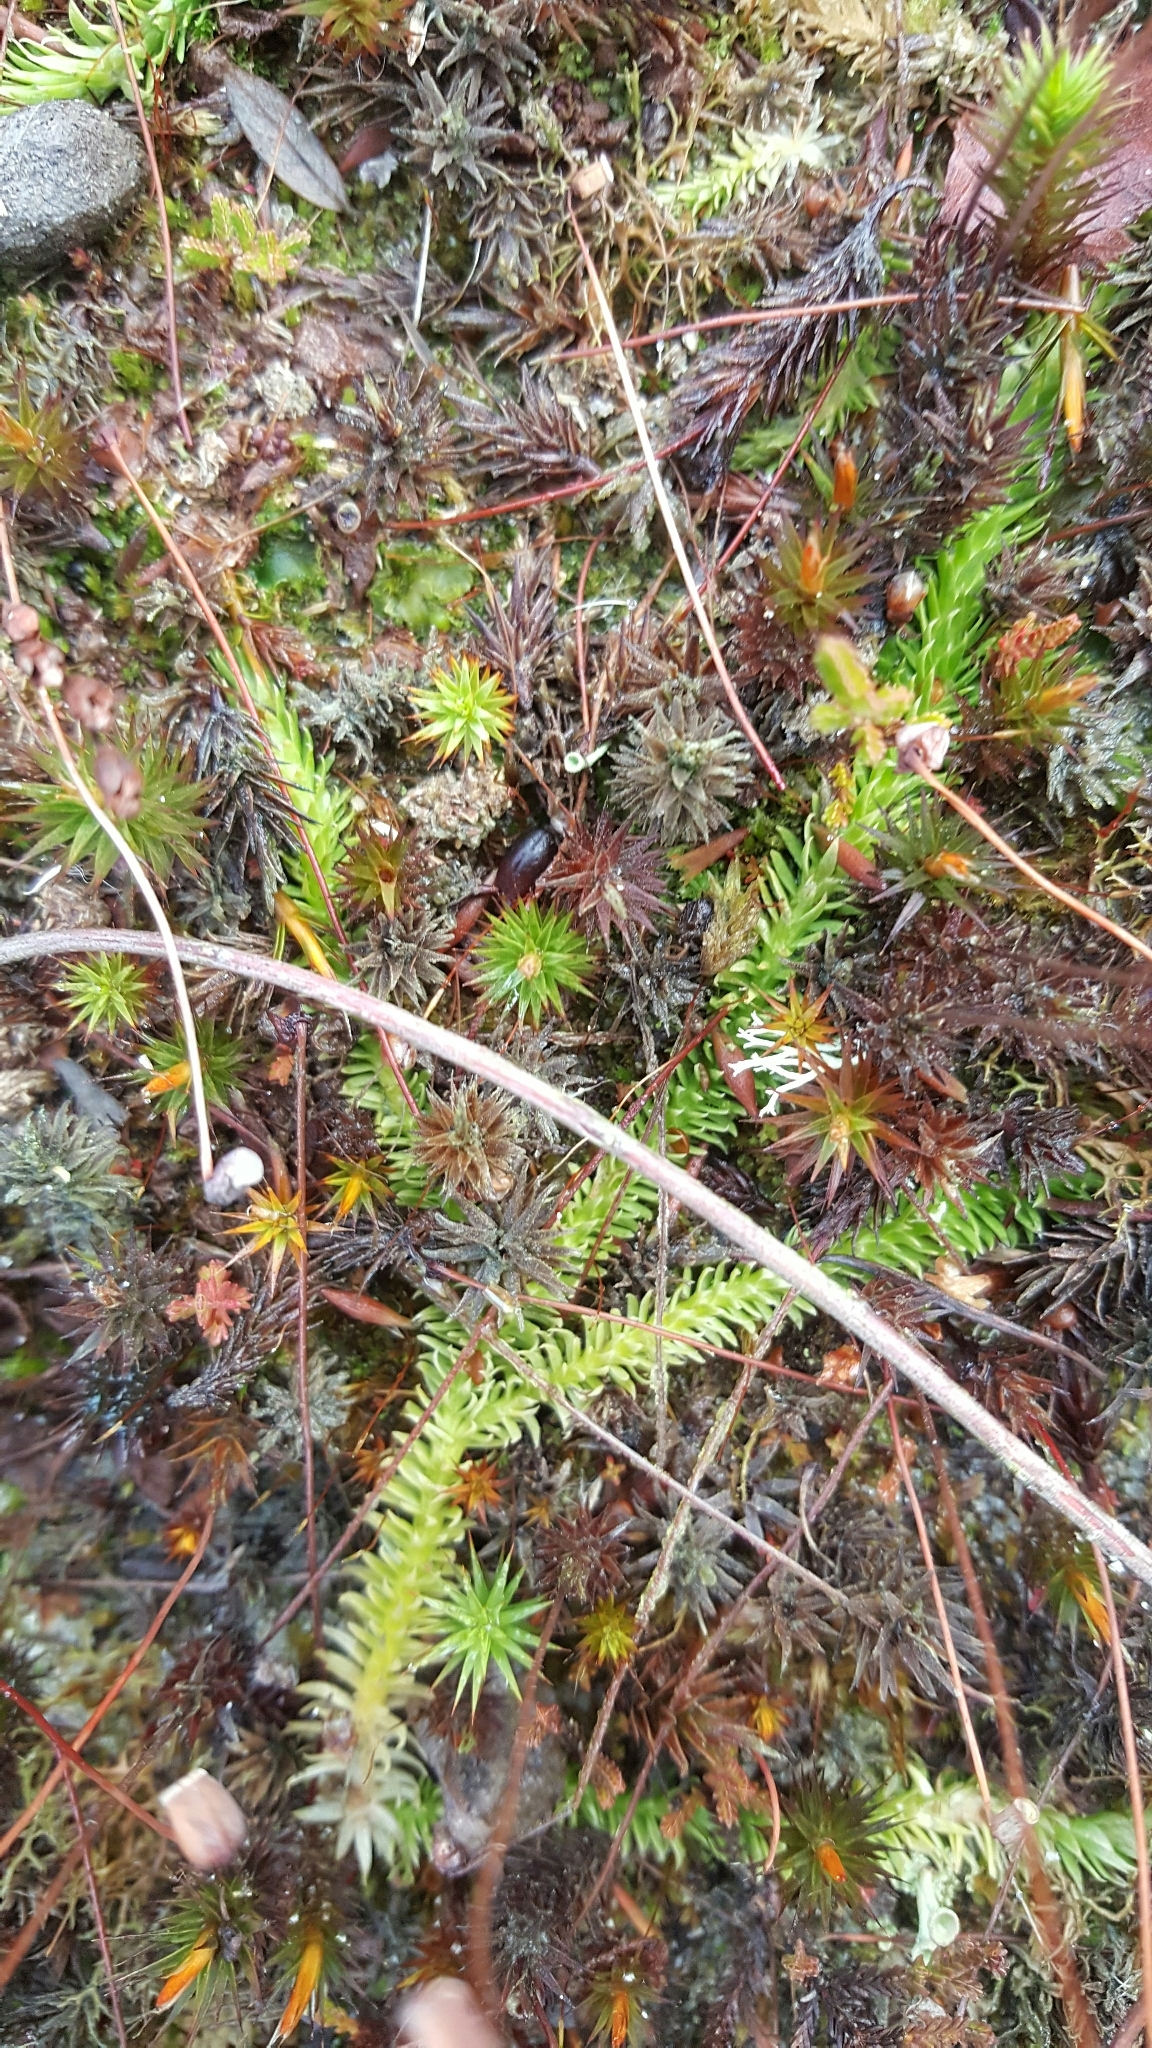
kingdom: Plantae
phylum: Tracheophyta
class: Lycopodiopsida
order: Lycopodiales
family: Lycopodiaceae
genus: Lycopodiella
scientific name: Lycopodiella inundata
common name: Marsh clubmoss
